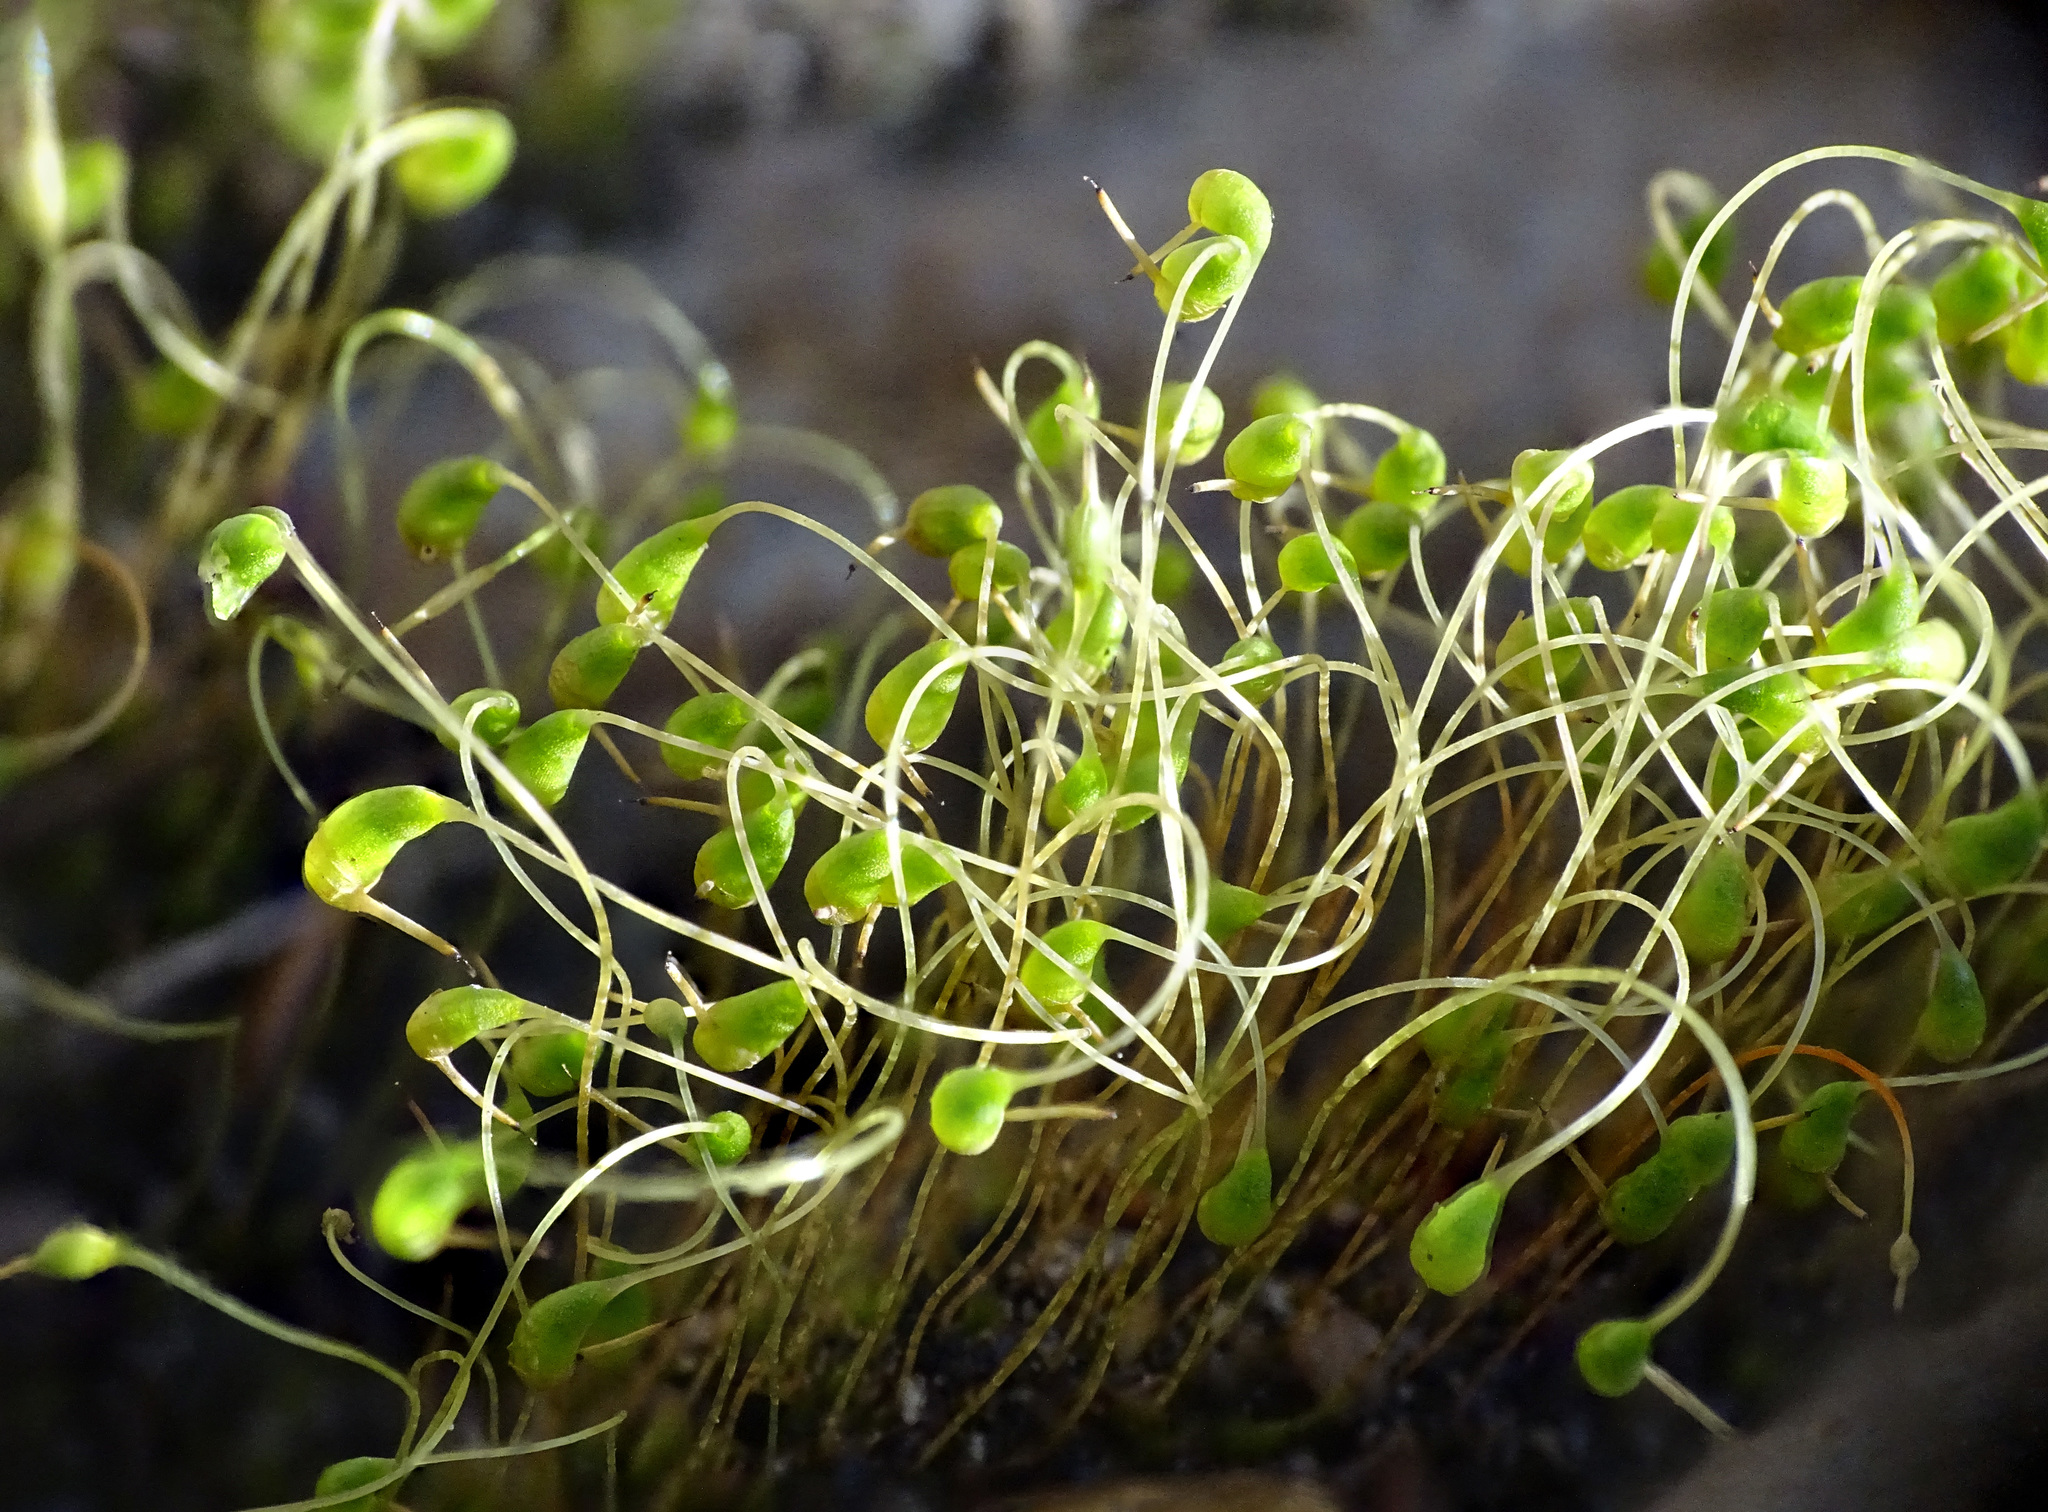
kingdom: Plantae
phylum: Bryophyta
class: Bryopsida
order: Funariales
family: Funariaceae
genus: Funaria
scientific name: Funaria hygrometrica
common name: Common cord moss
